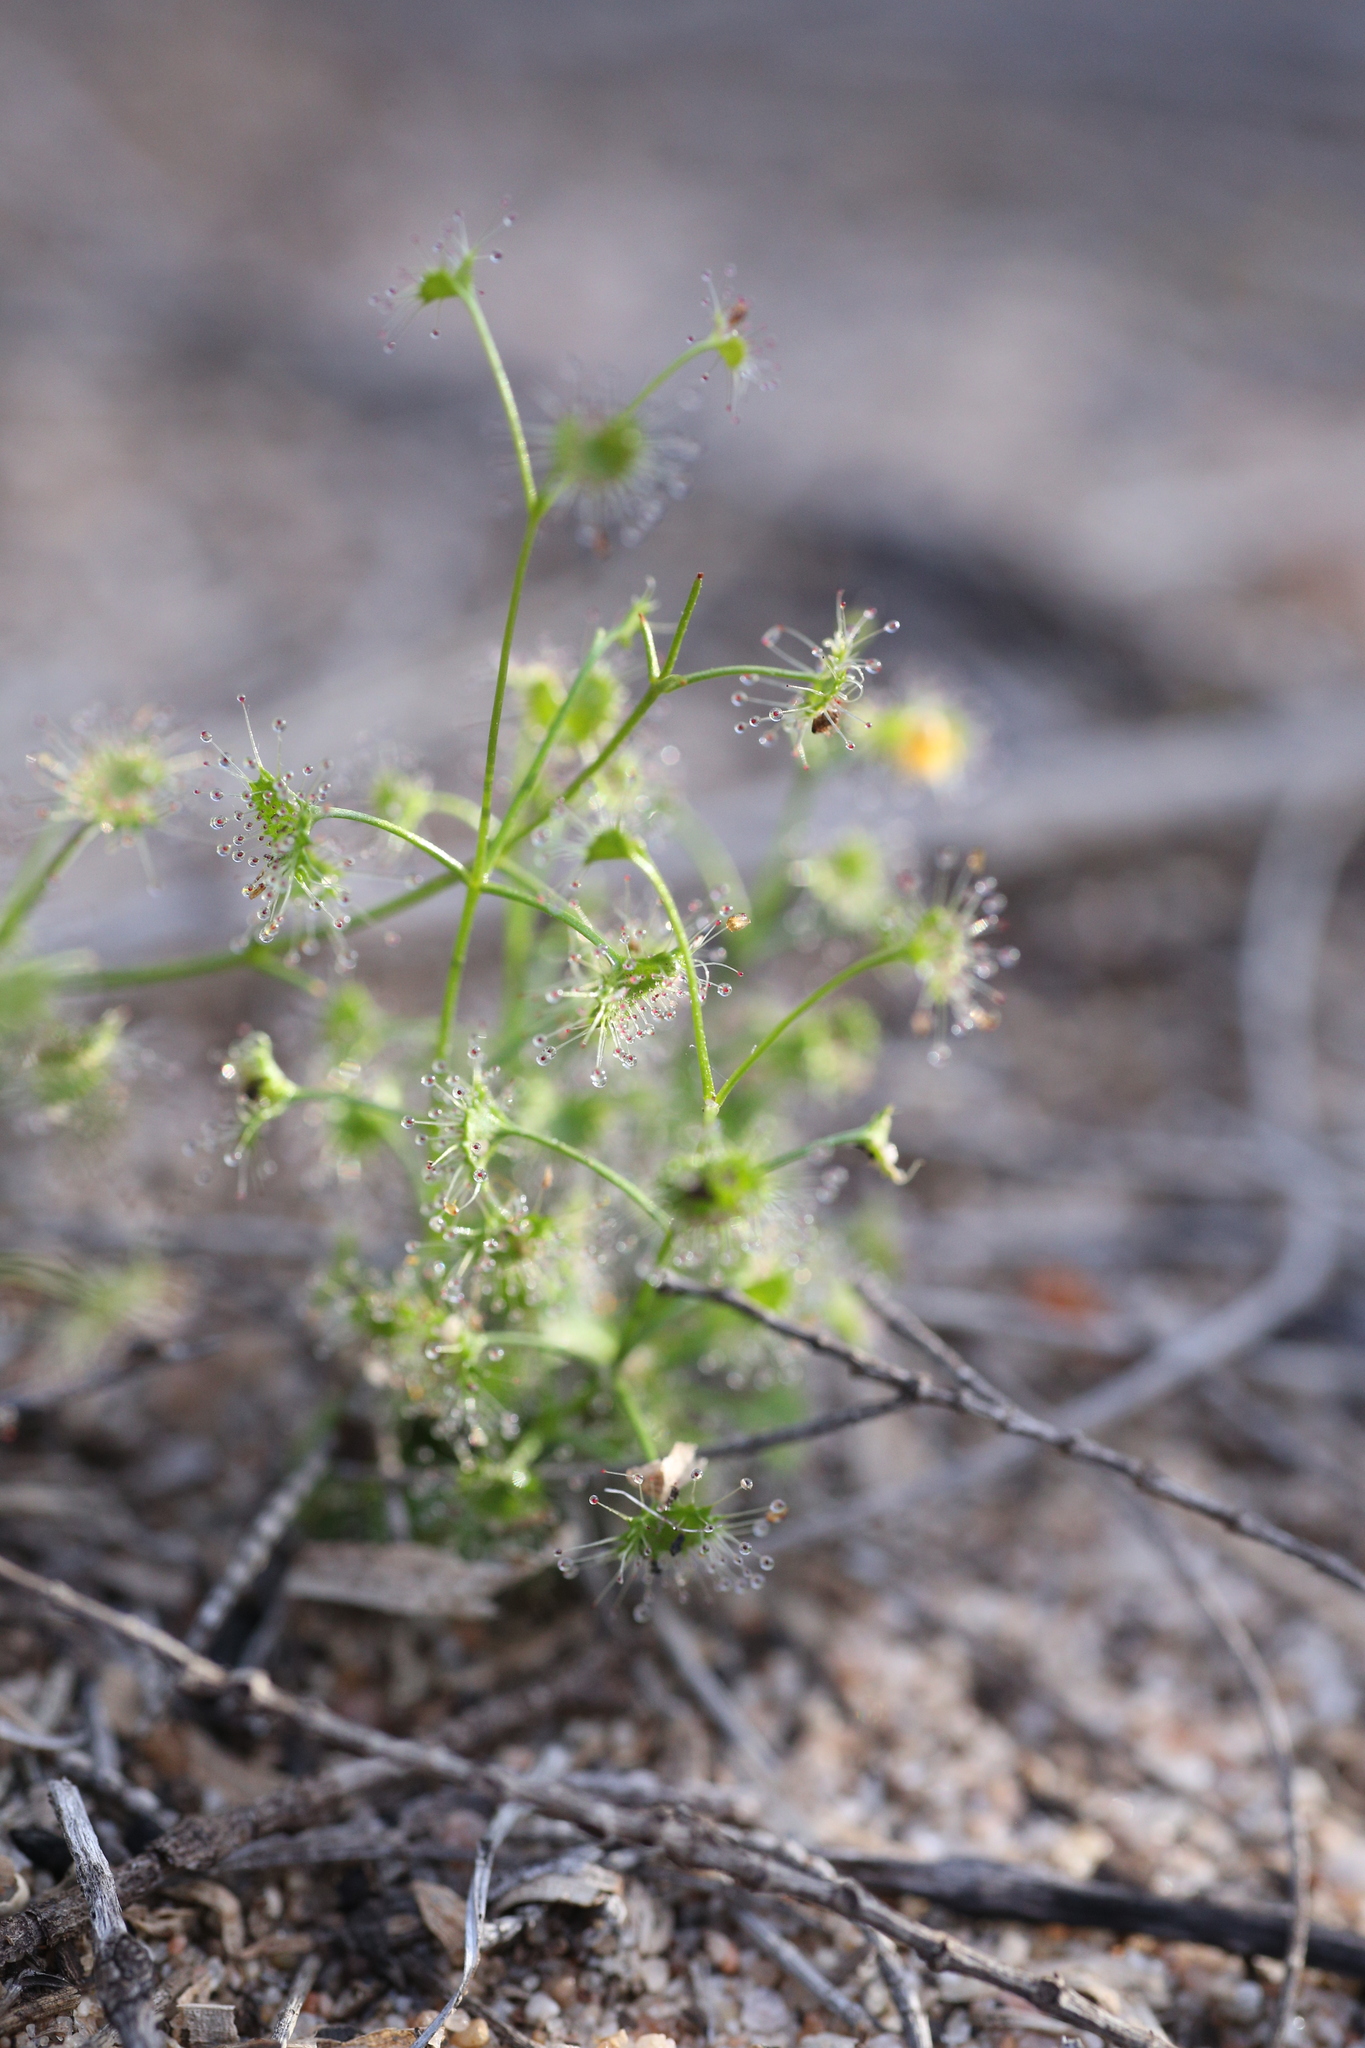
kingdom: Plantae
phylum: Tracheophyta
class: Magnoliopsida
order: Caryophyllales
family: Droseraceae
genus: Drosera
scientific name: Drosera stolonifera
